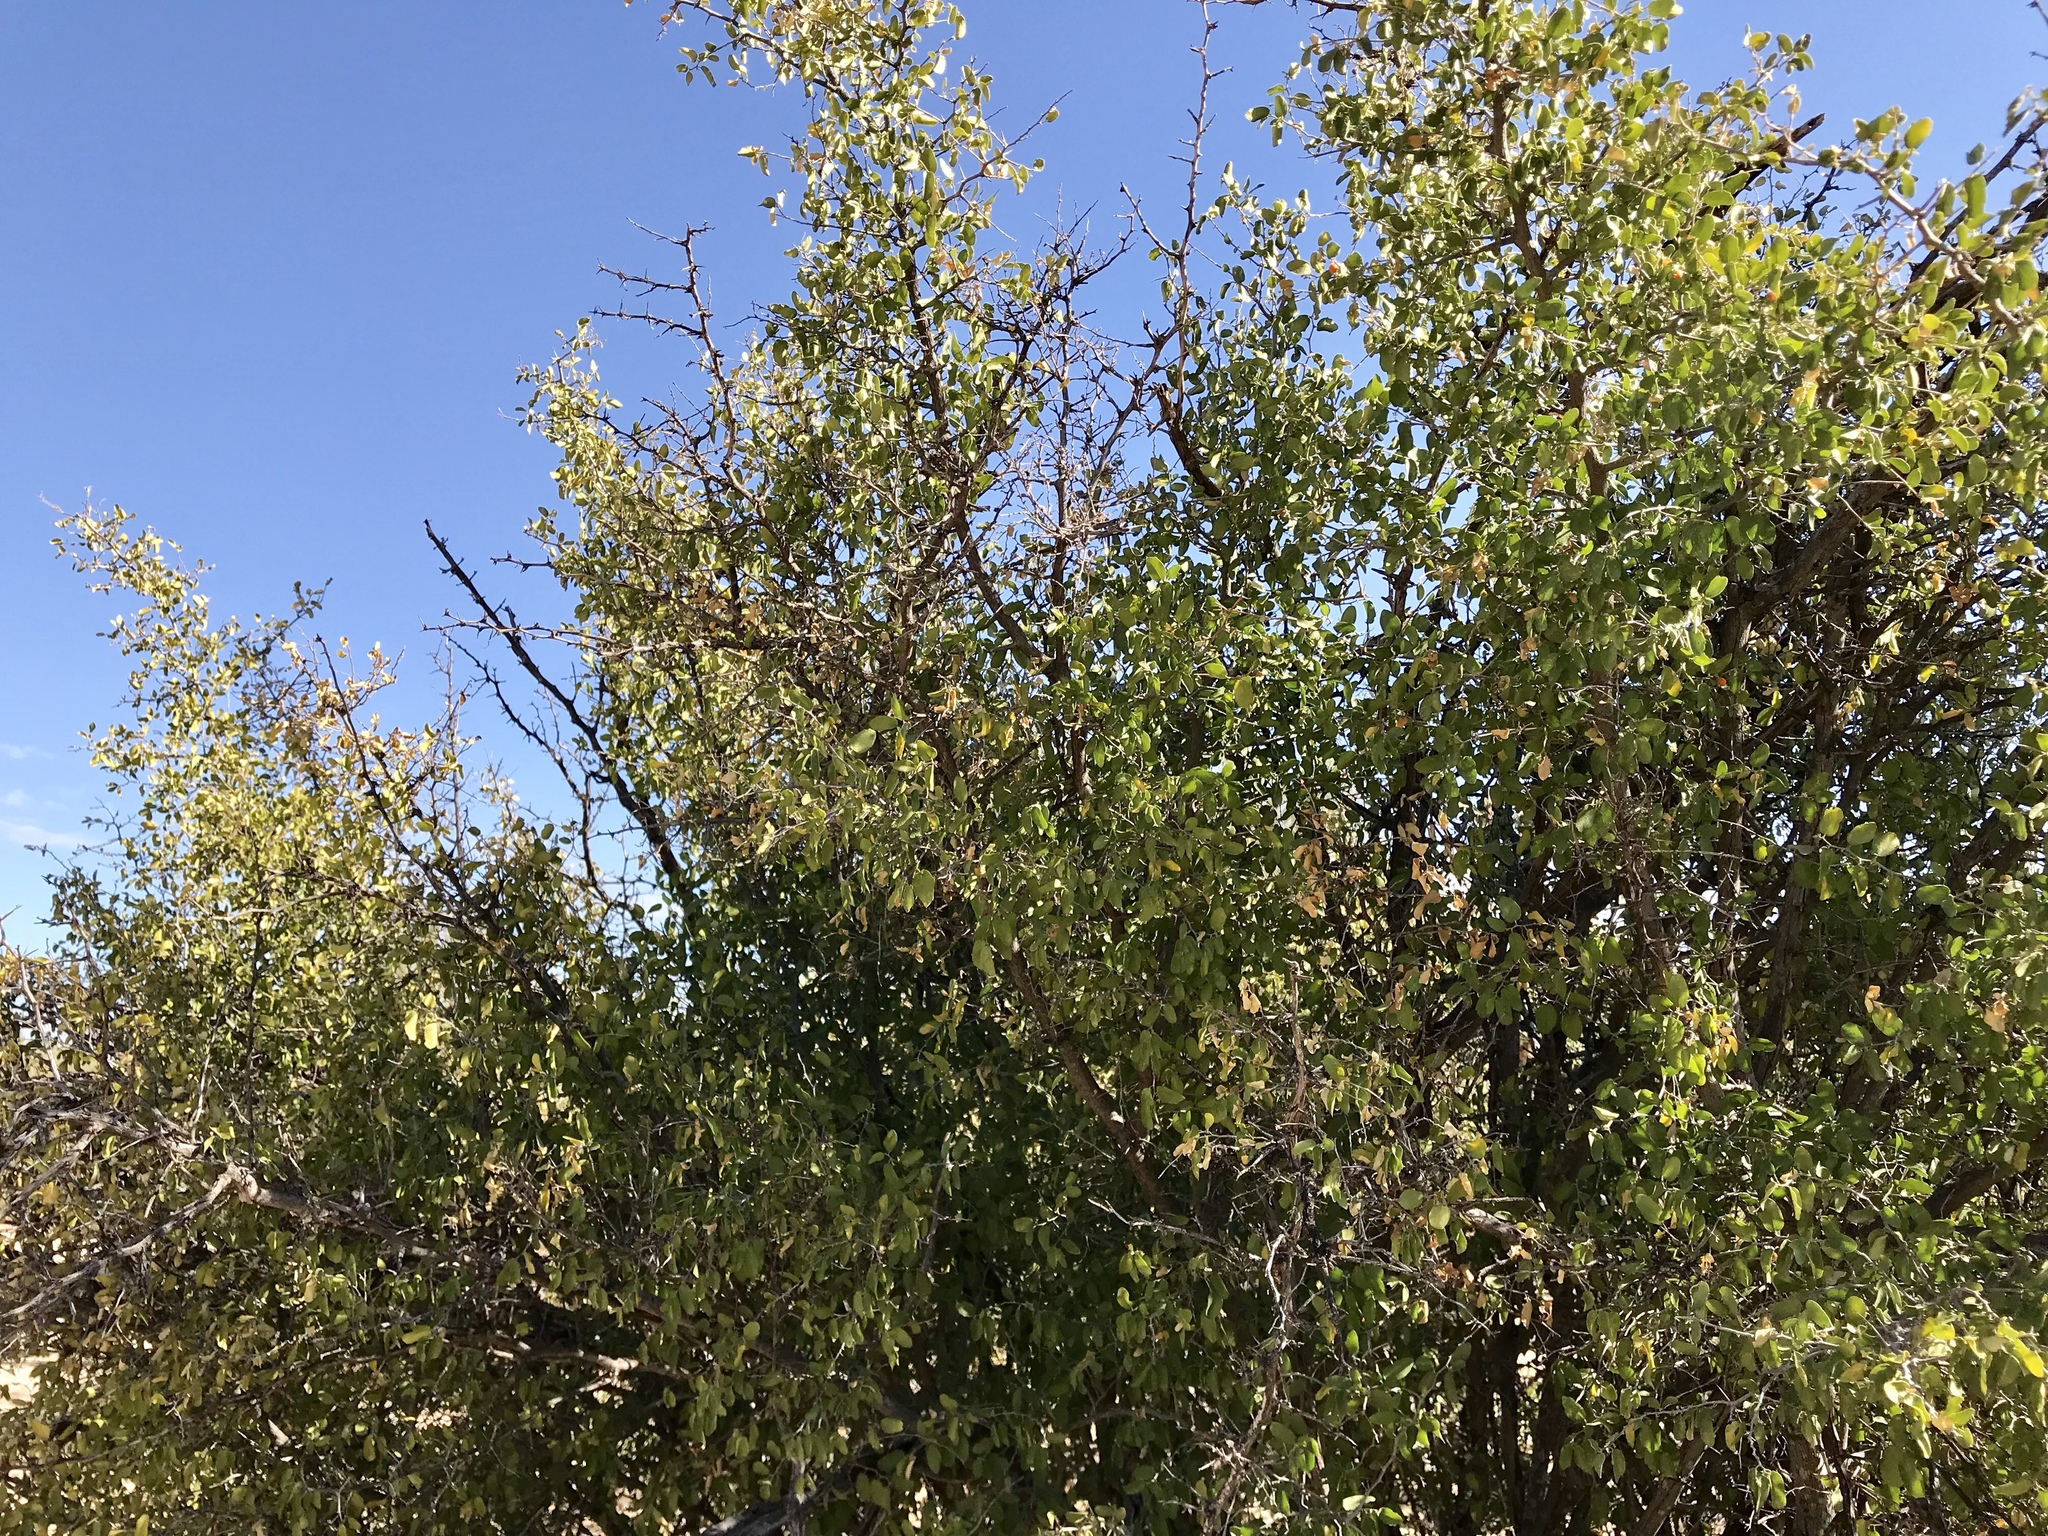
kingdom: Plantae
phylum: Tracheophyta
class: Magnoliopsida
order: Rosales
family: Cannabaceae
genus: Celtis
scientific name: Celtis pallida
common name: Desert hackberry
